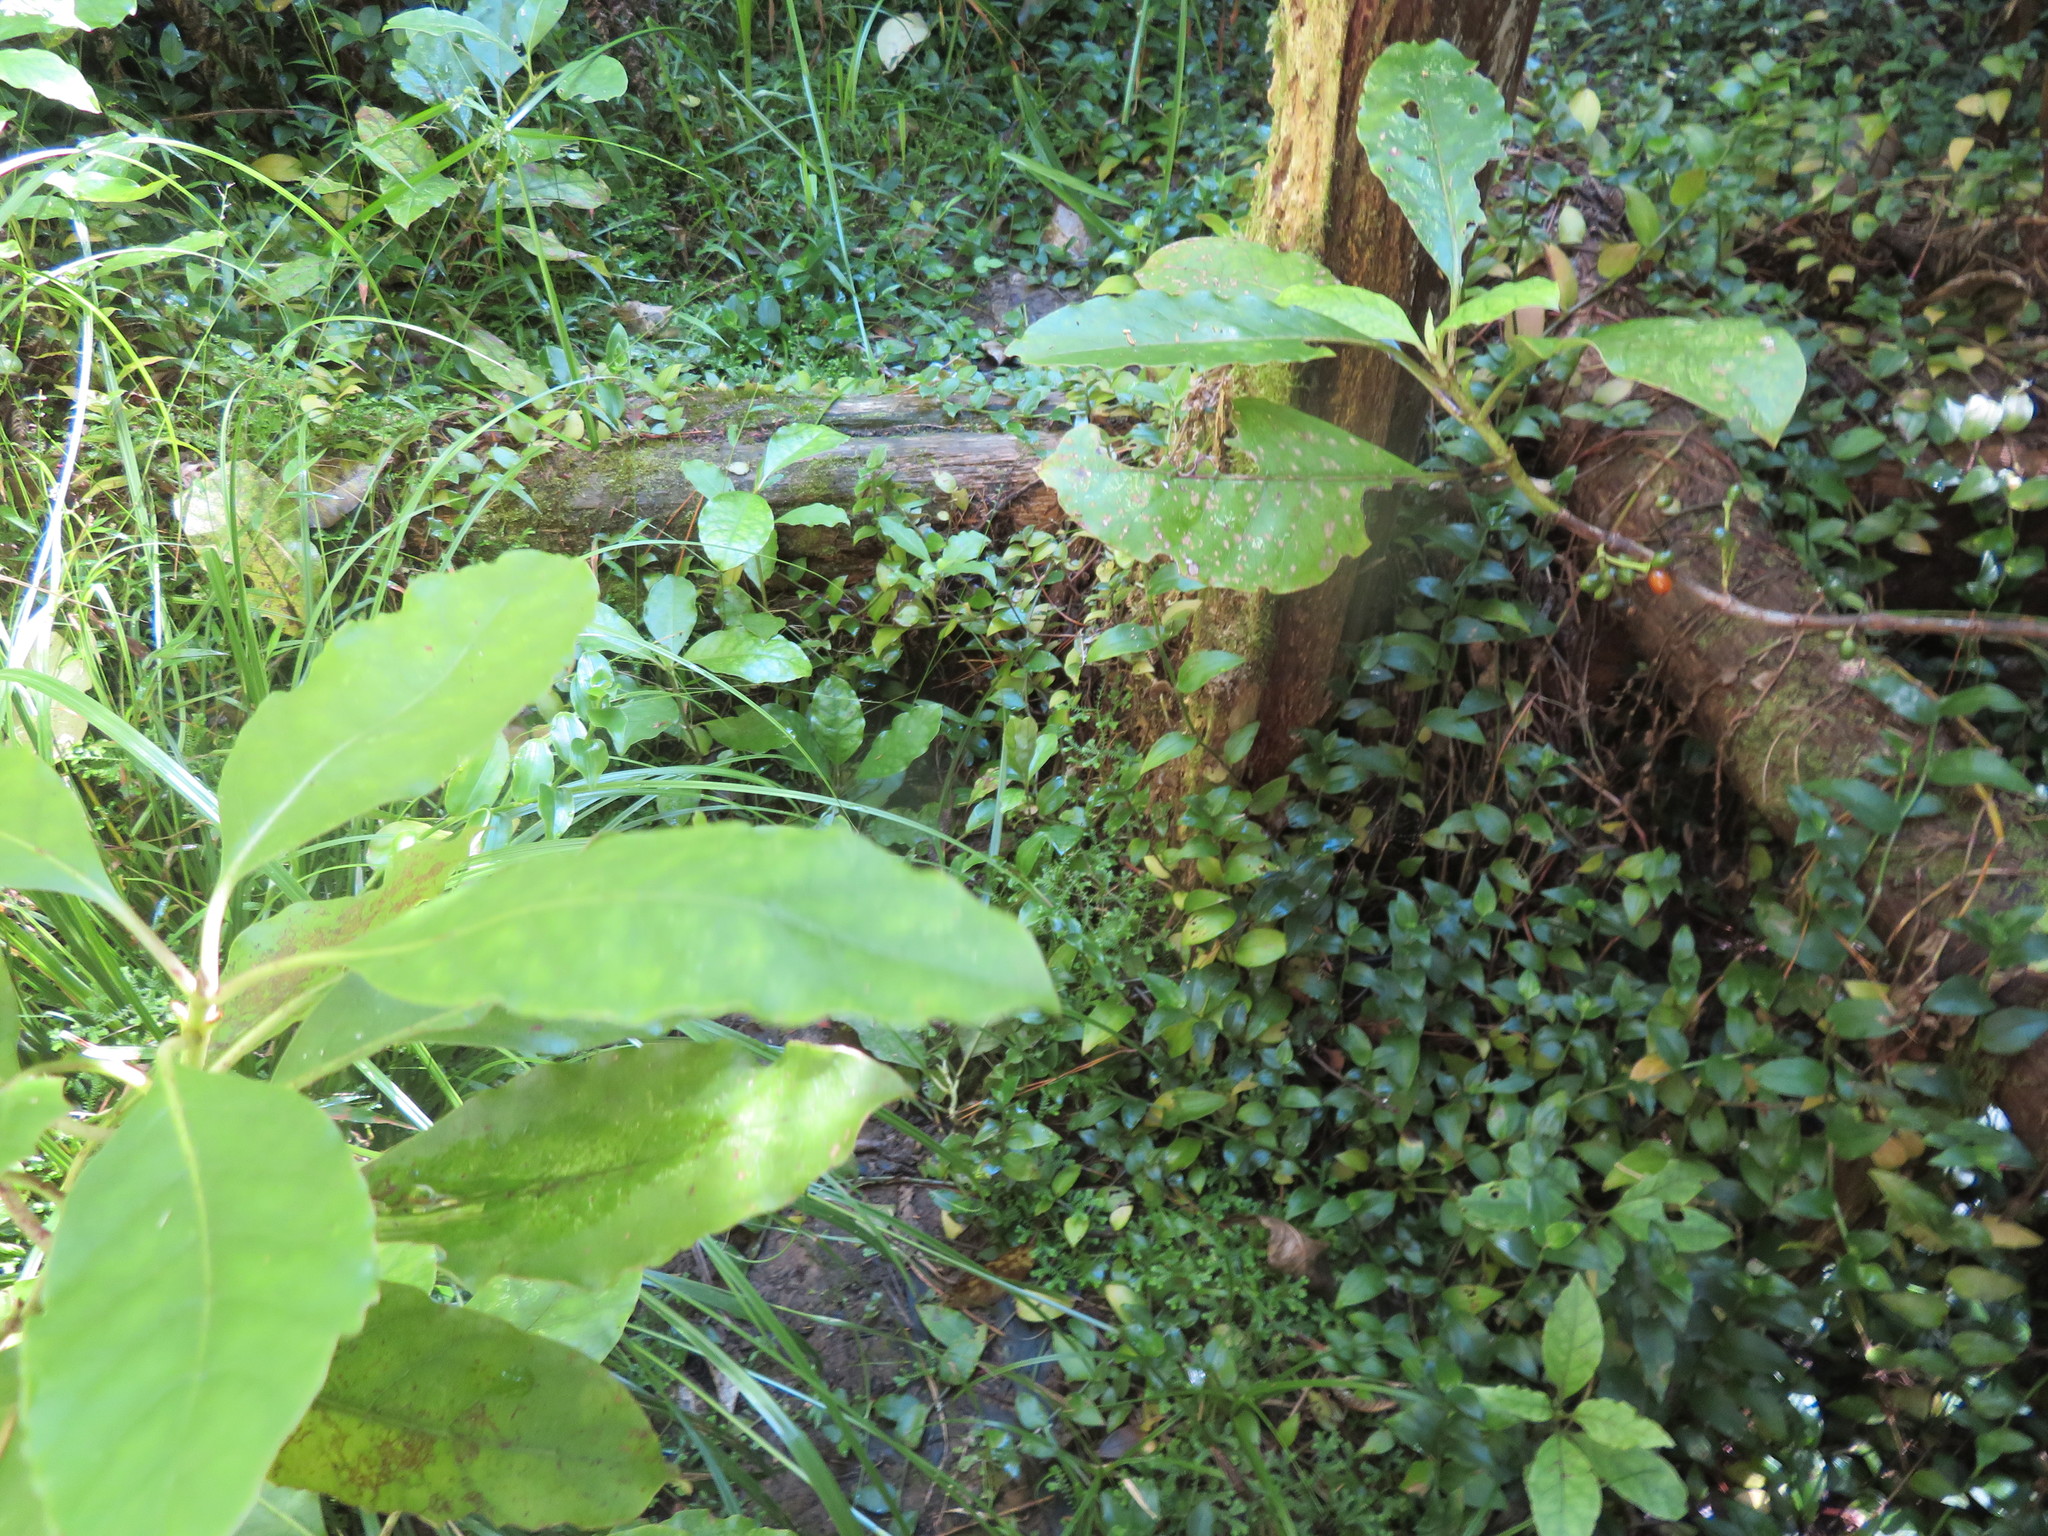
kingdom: Plantae
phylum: Tracheophyta
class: Magnoliopsida
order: Gentianales
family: Rubiaceae
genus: Coprosma
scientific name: Coprosma autumnalis
